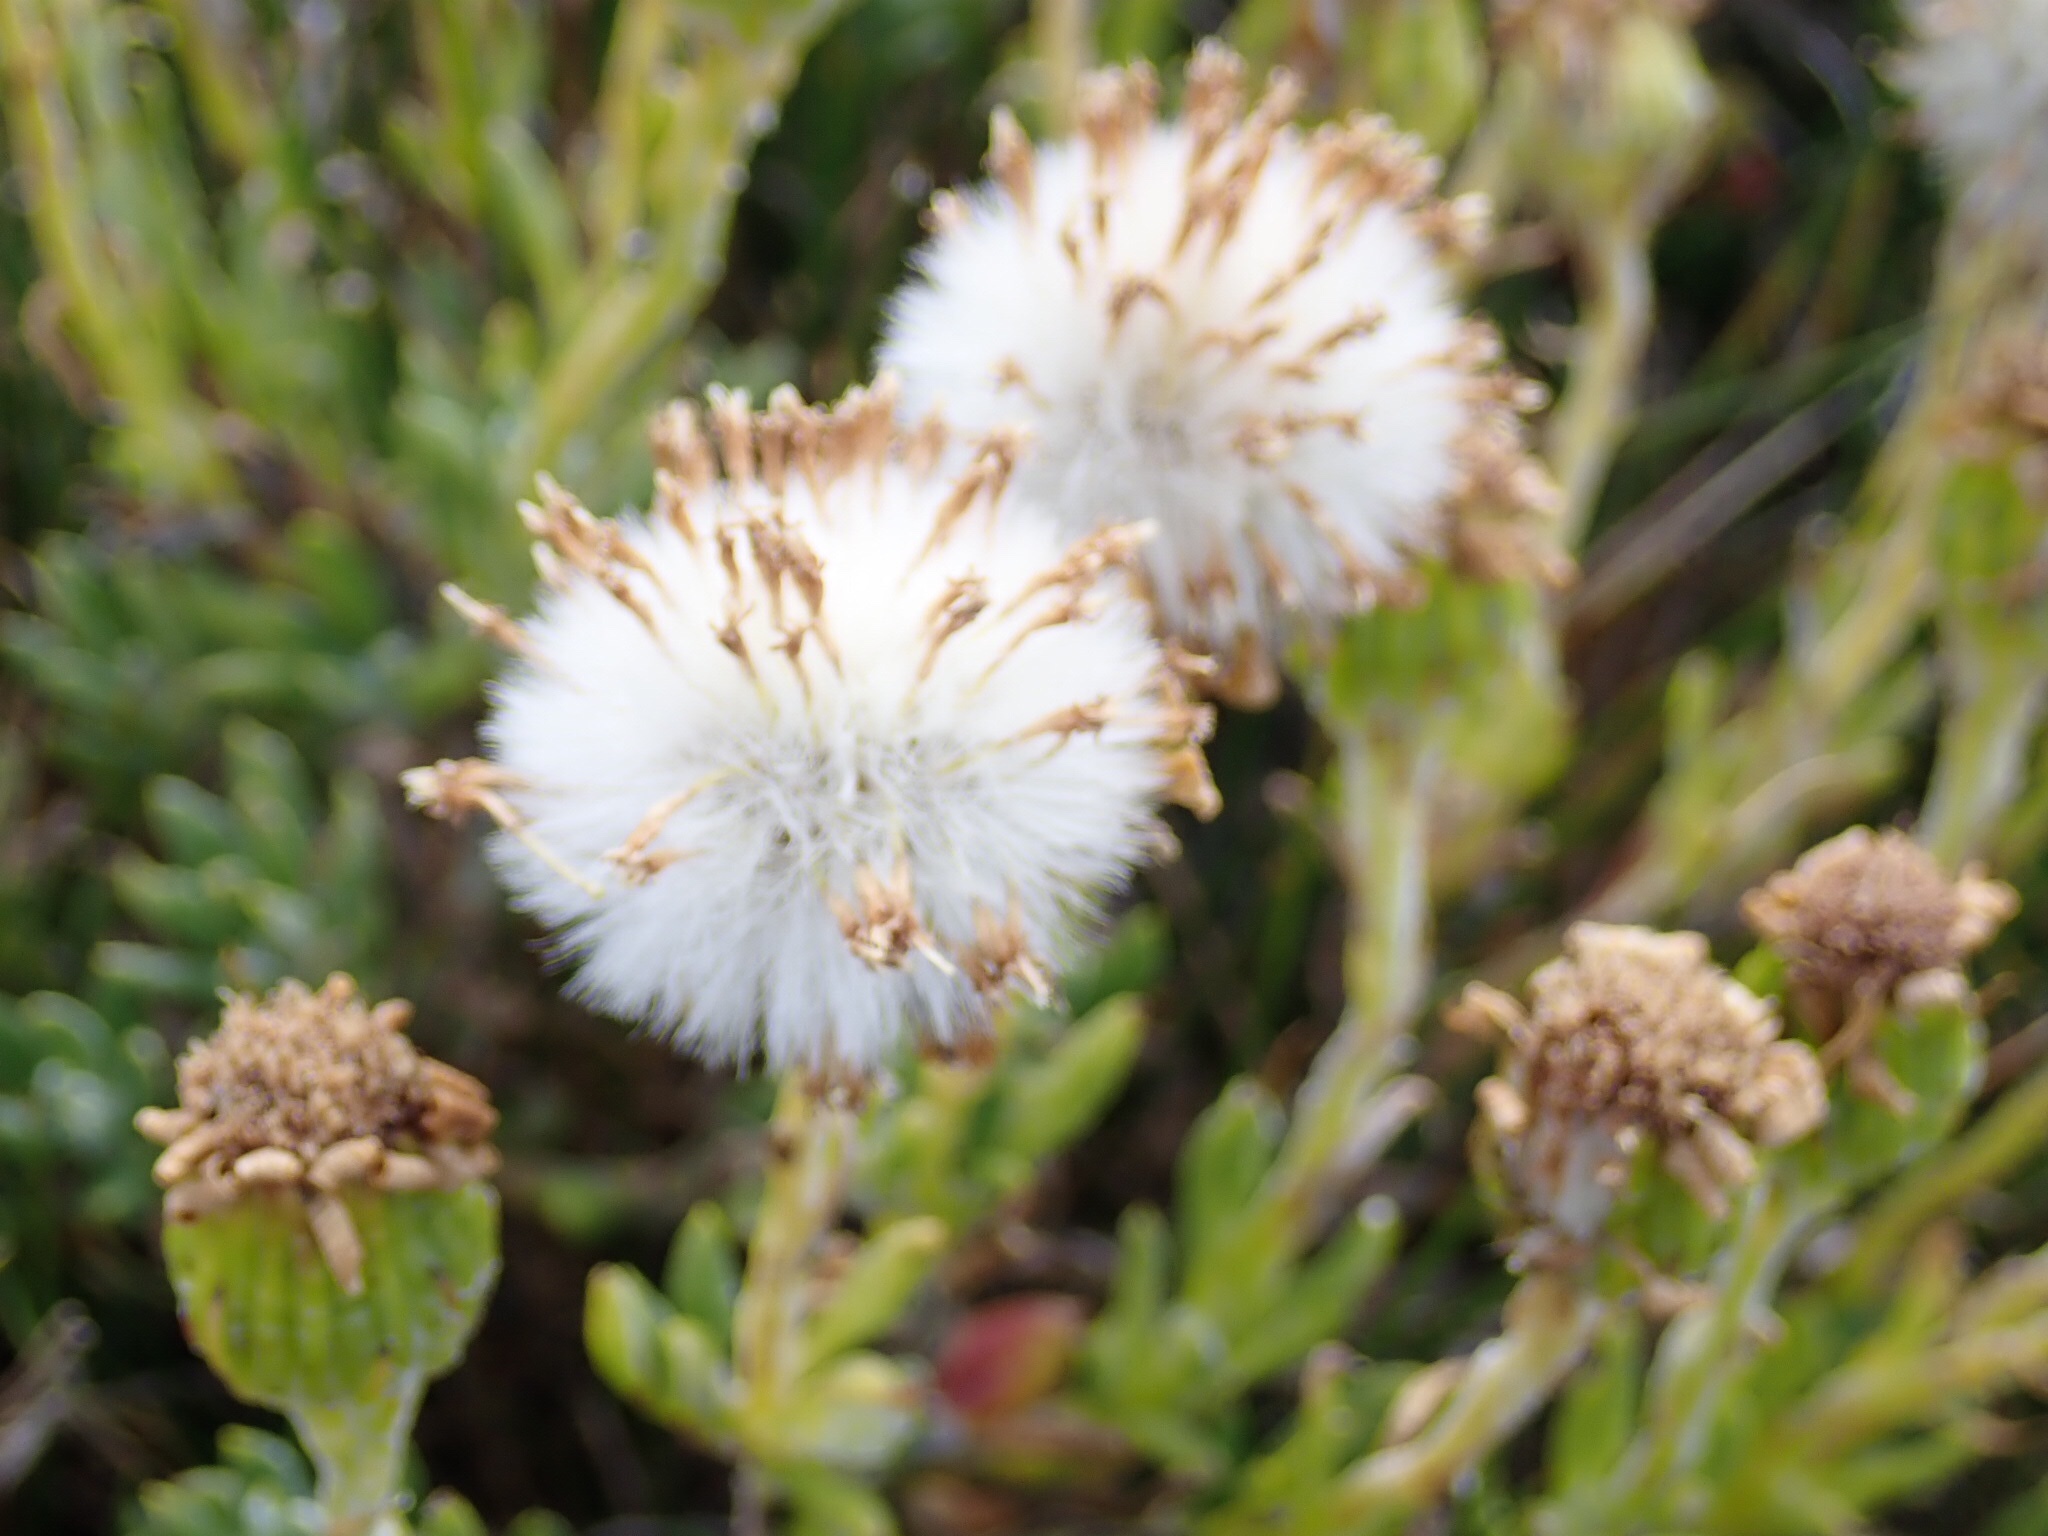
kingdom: Plantae
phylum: Tracheophyta
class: Magnoliopsida
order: Asterales
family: Asteraceae
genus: Senecio
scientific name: Senecio falklandicus
